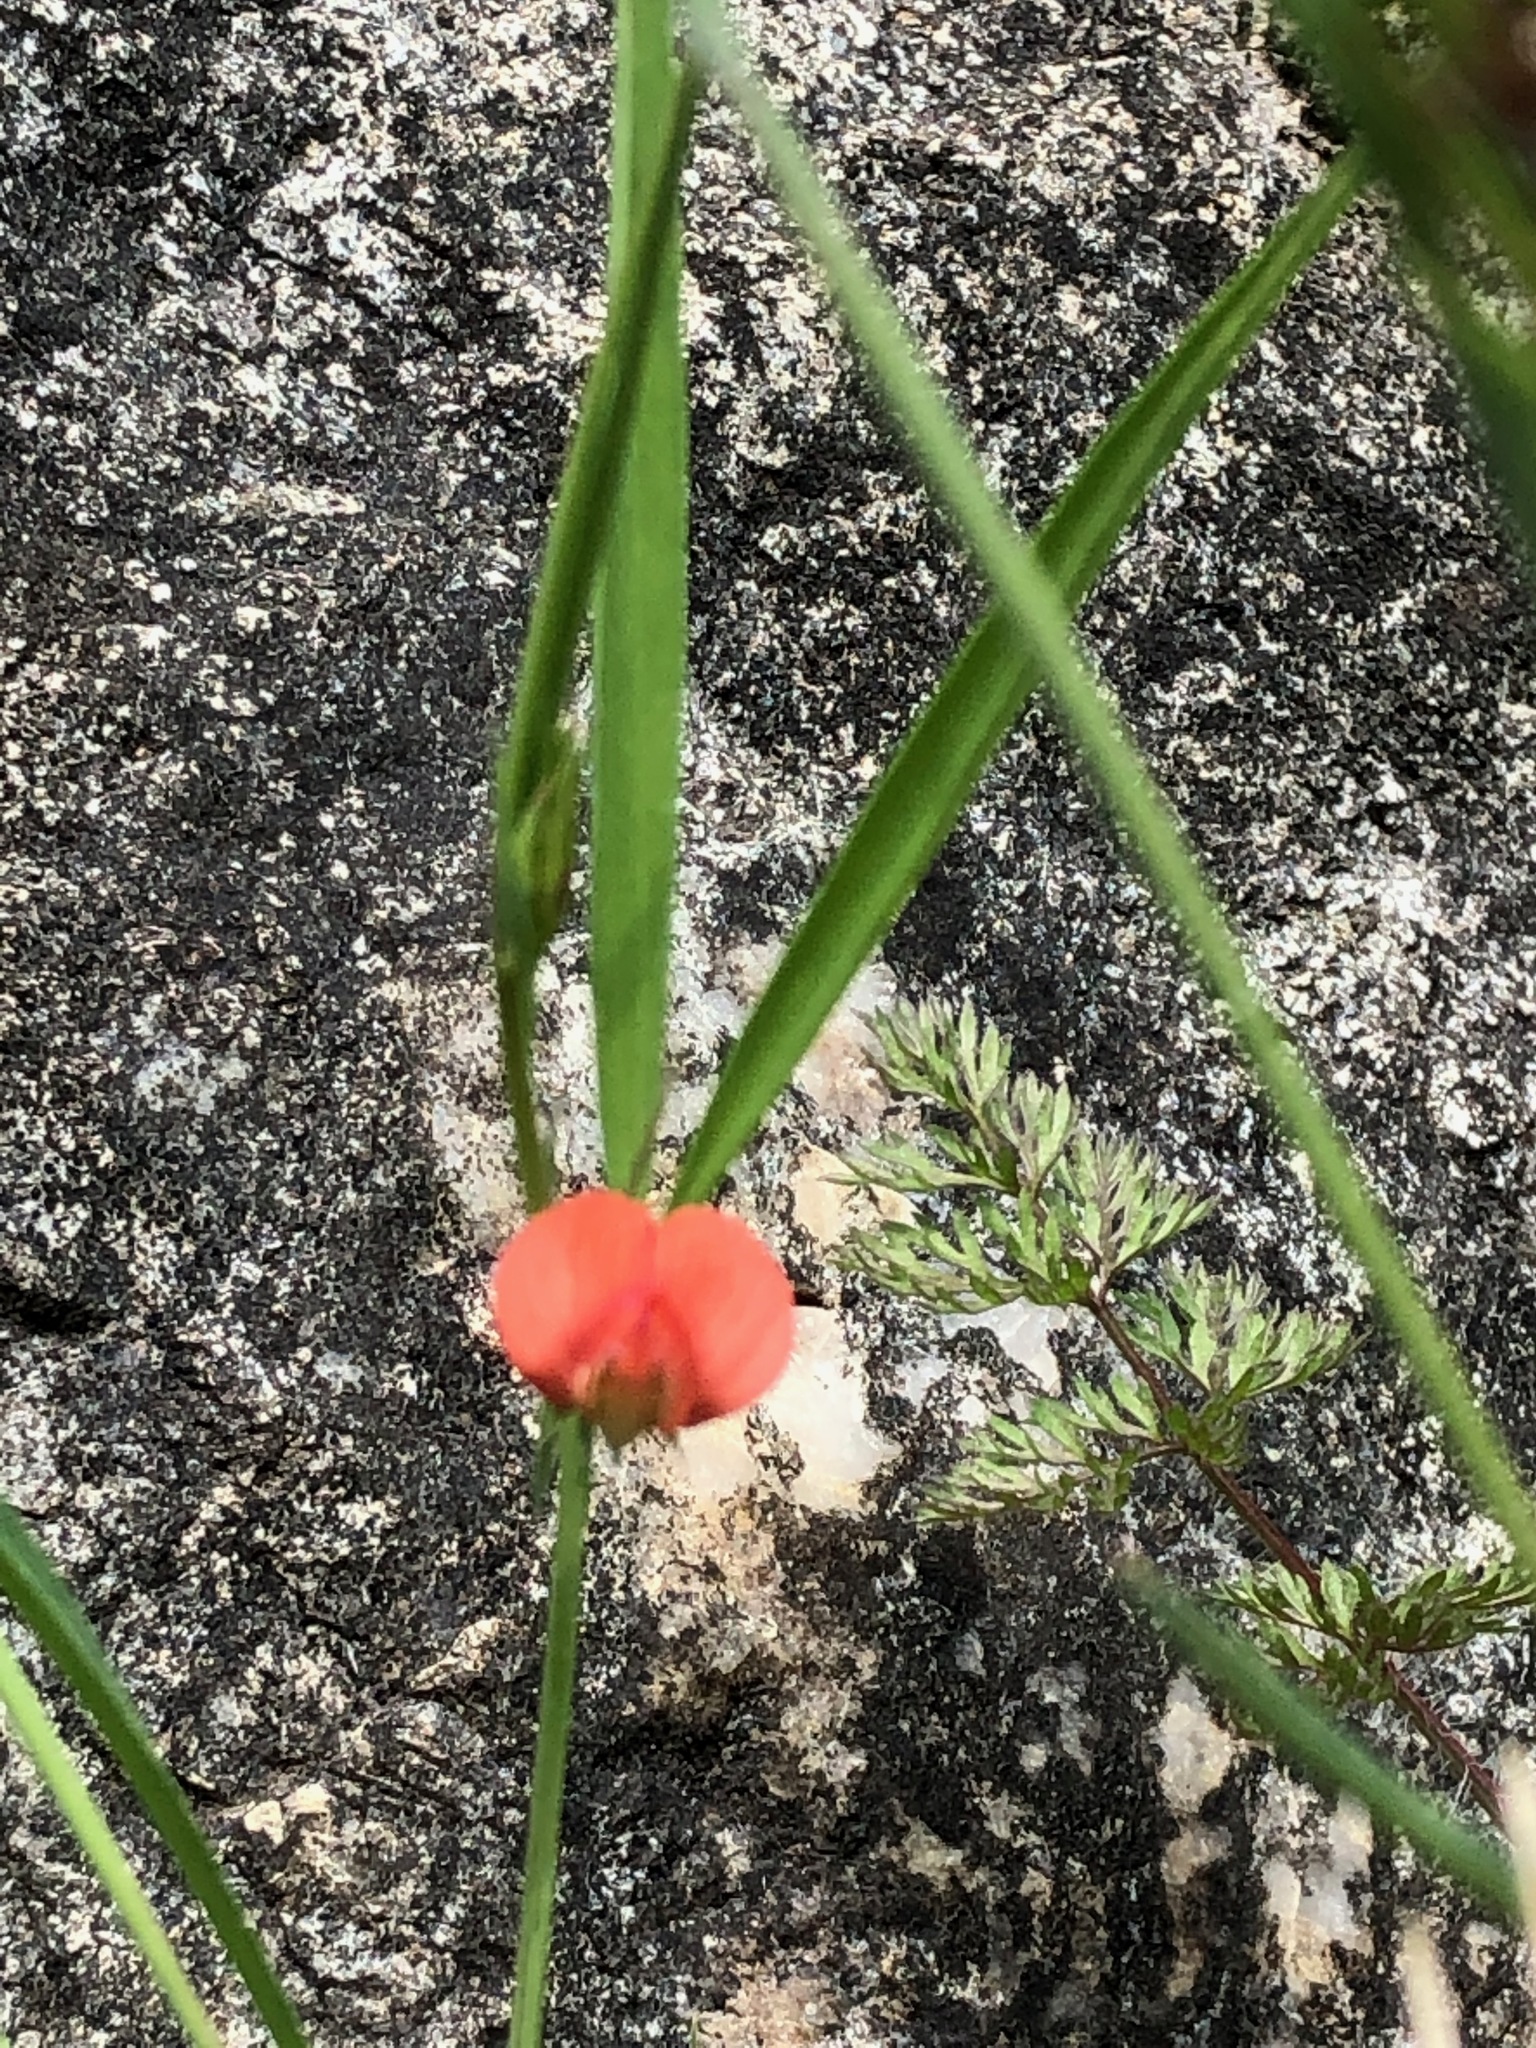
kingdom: Plantae
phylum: Tracheophyta
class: Magnoliopsida
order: Fabales
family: Fabaceae
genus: Lathyrus
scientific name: Lathyrus sphaericus
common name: Grass pea
